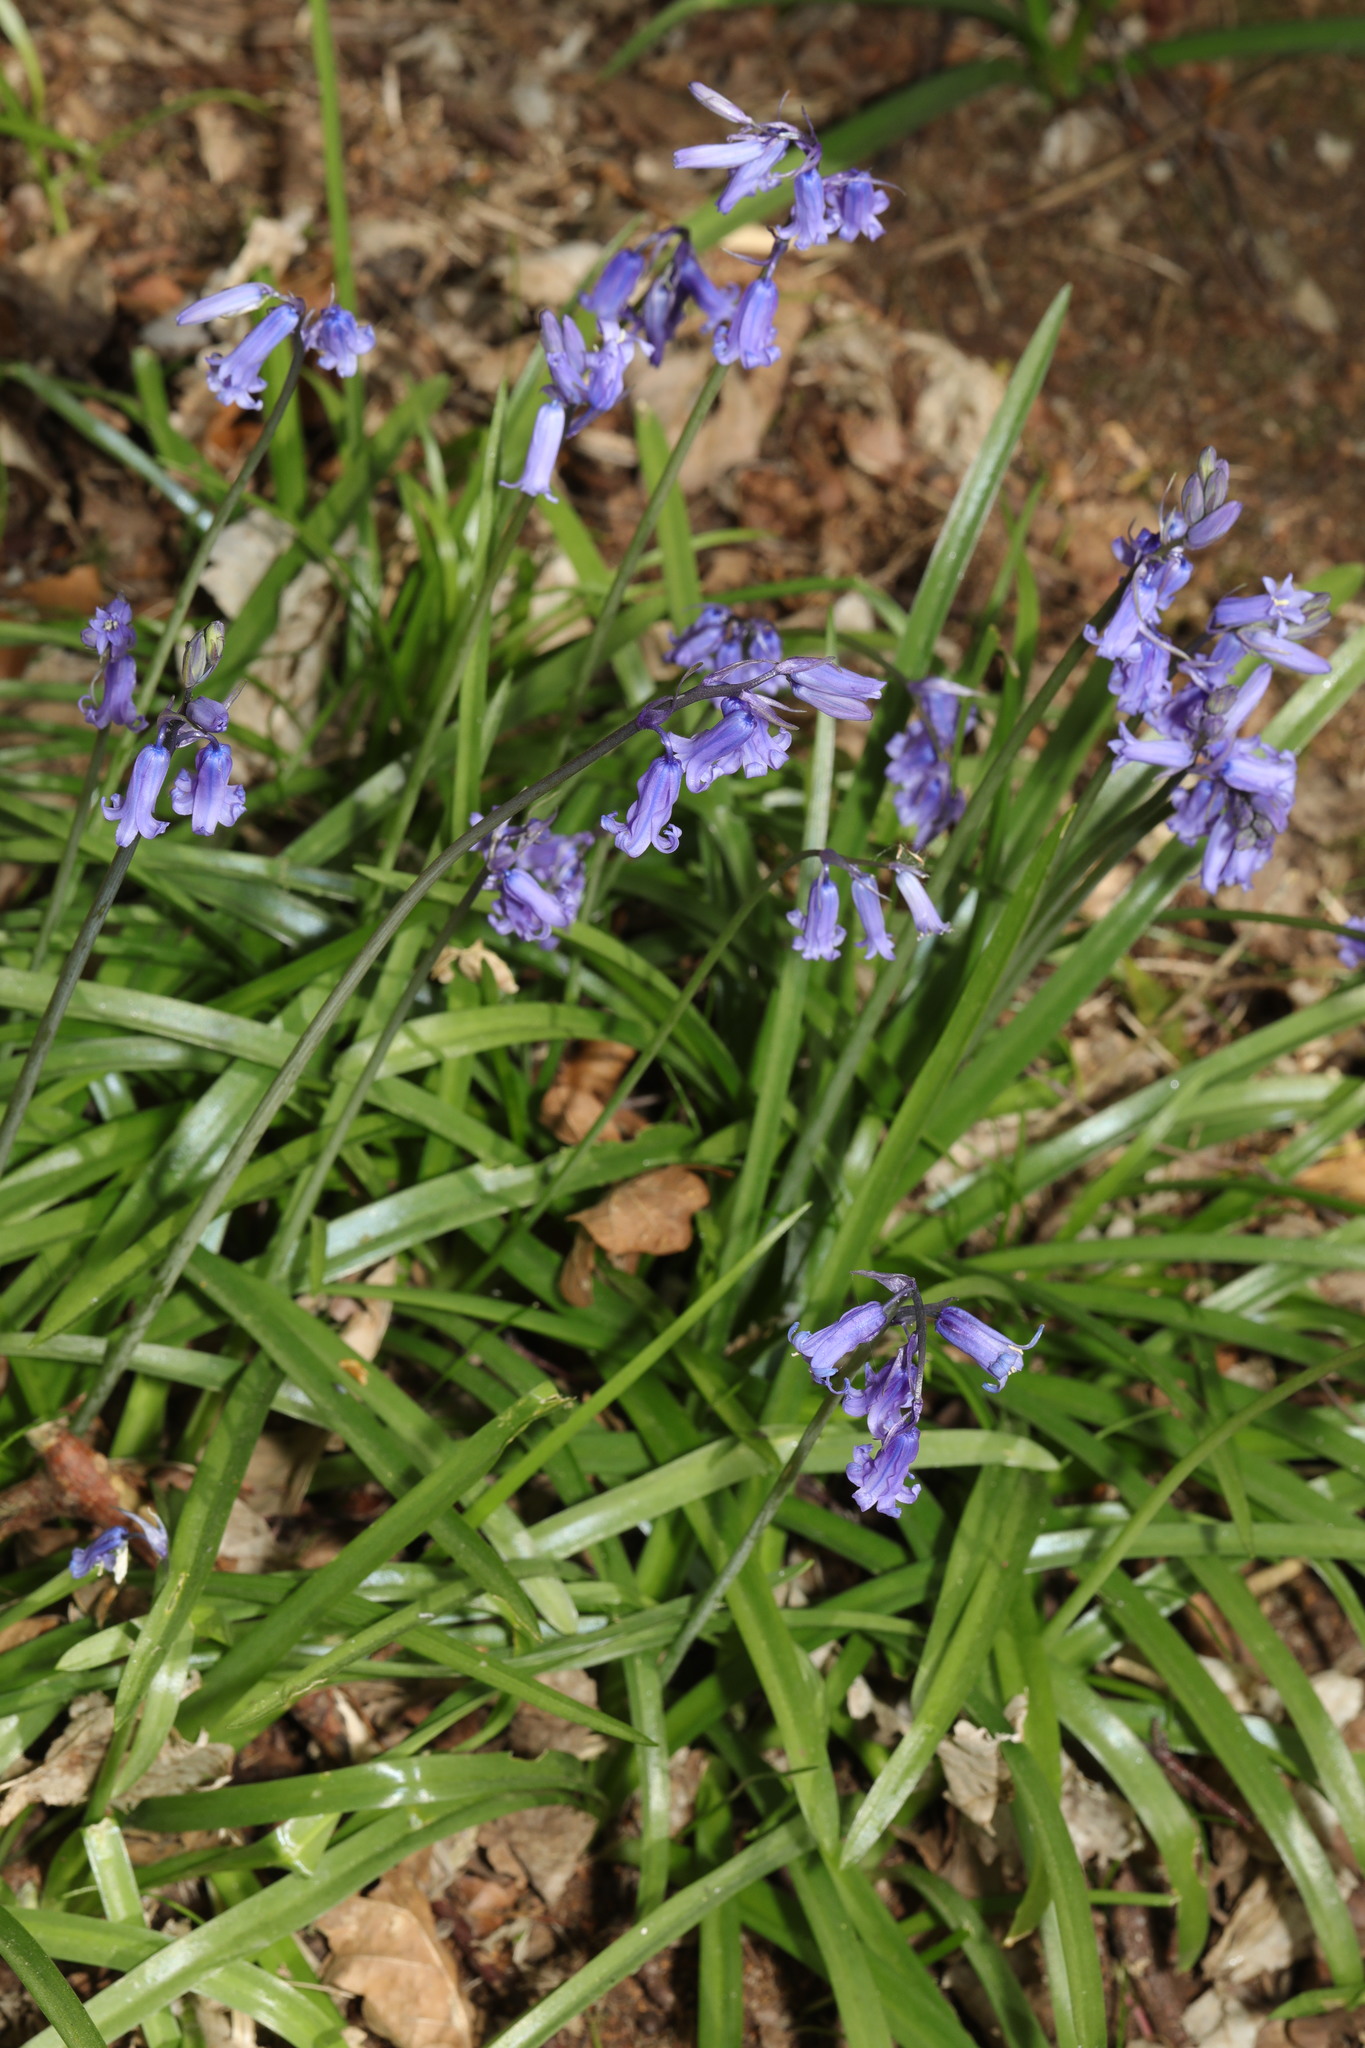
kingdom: Plantae
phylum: Tracheophyta
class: Liliopsida
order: Asparagales
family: Asparagaceae
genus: Hyacinthoides
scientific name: Hyacinthoides non-scripta
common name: Bluebell
